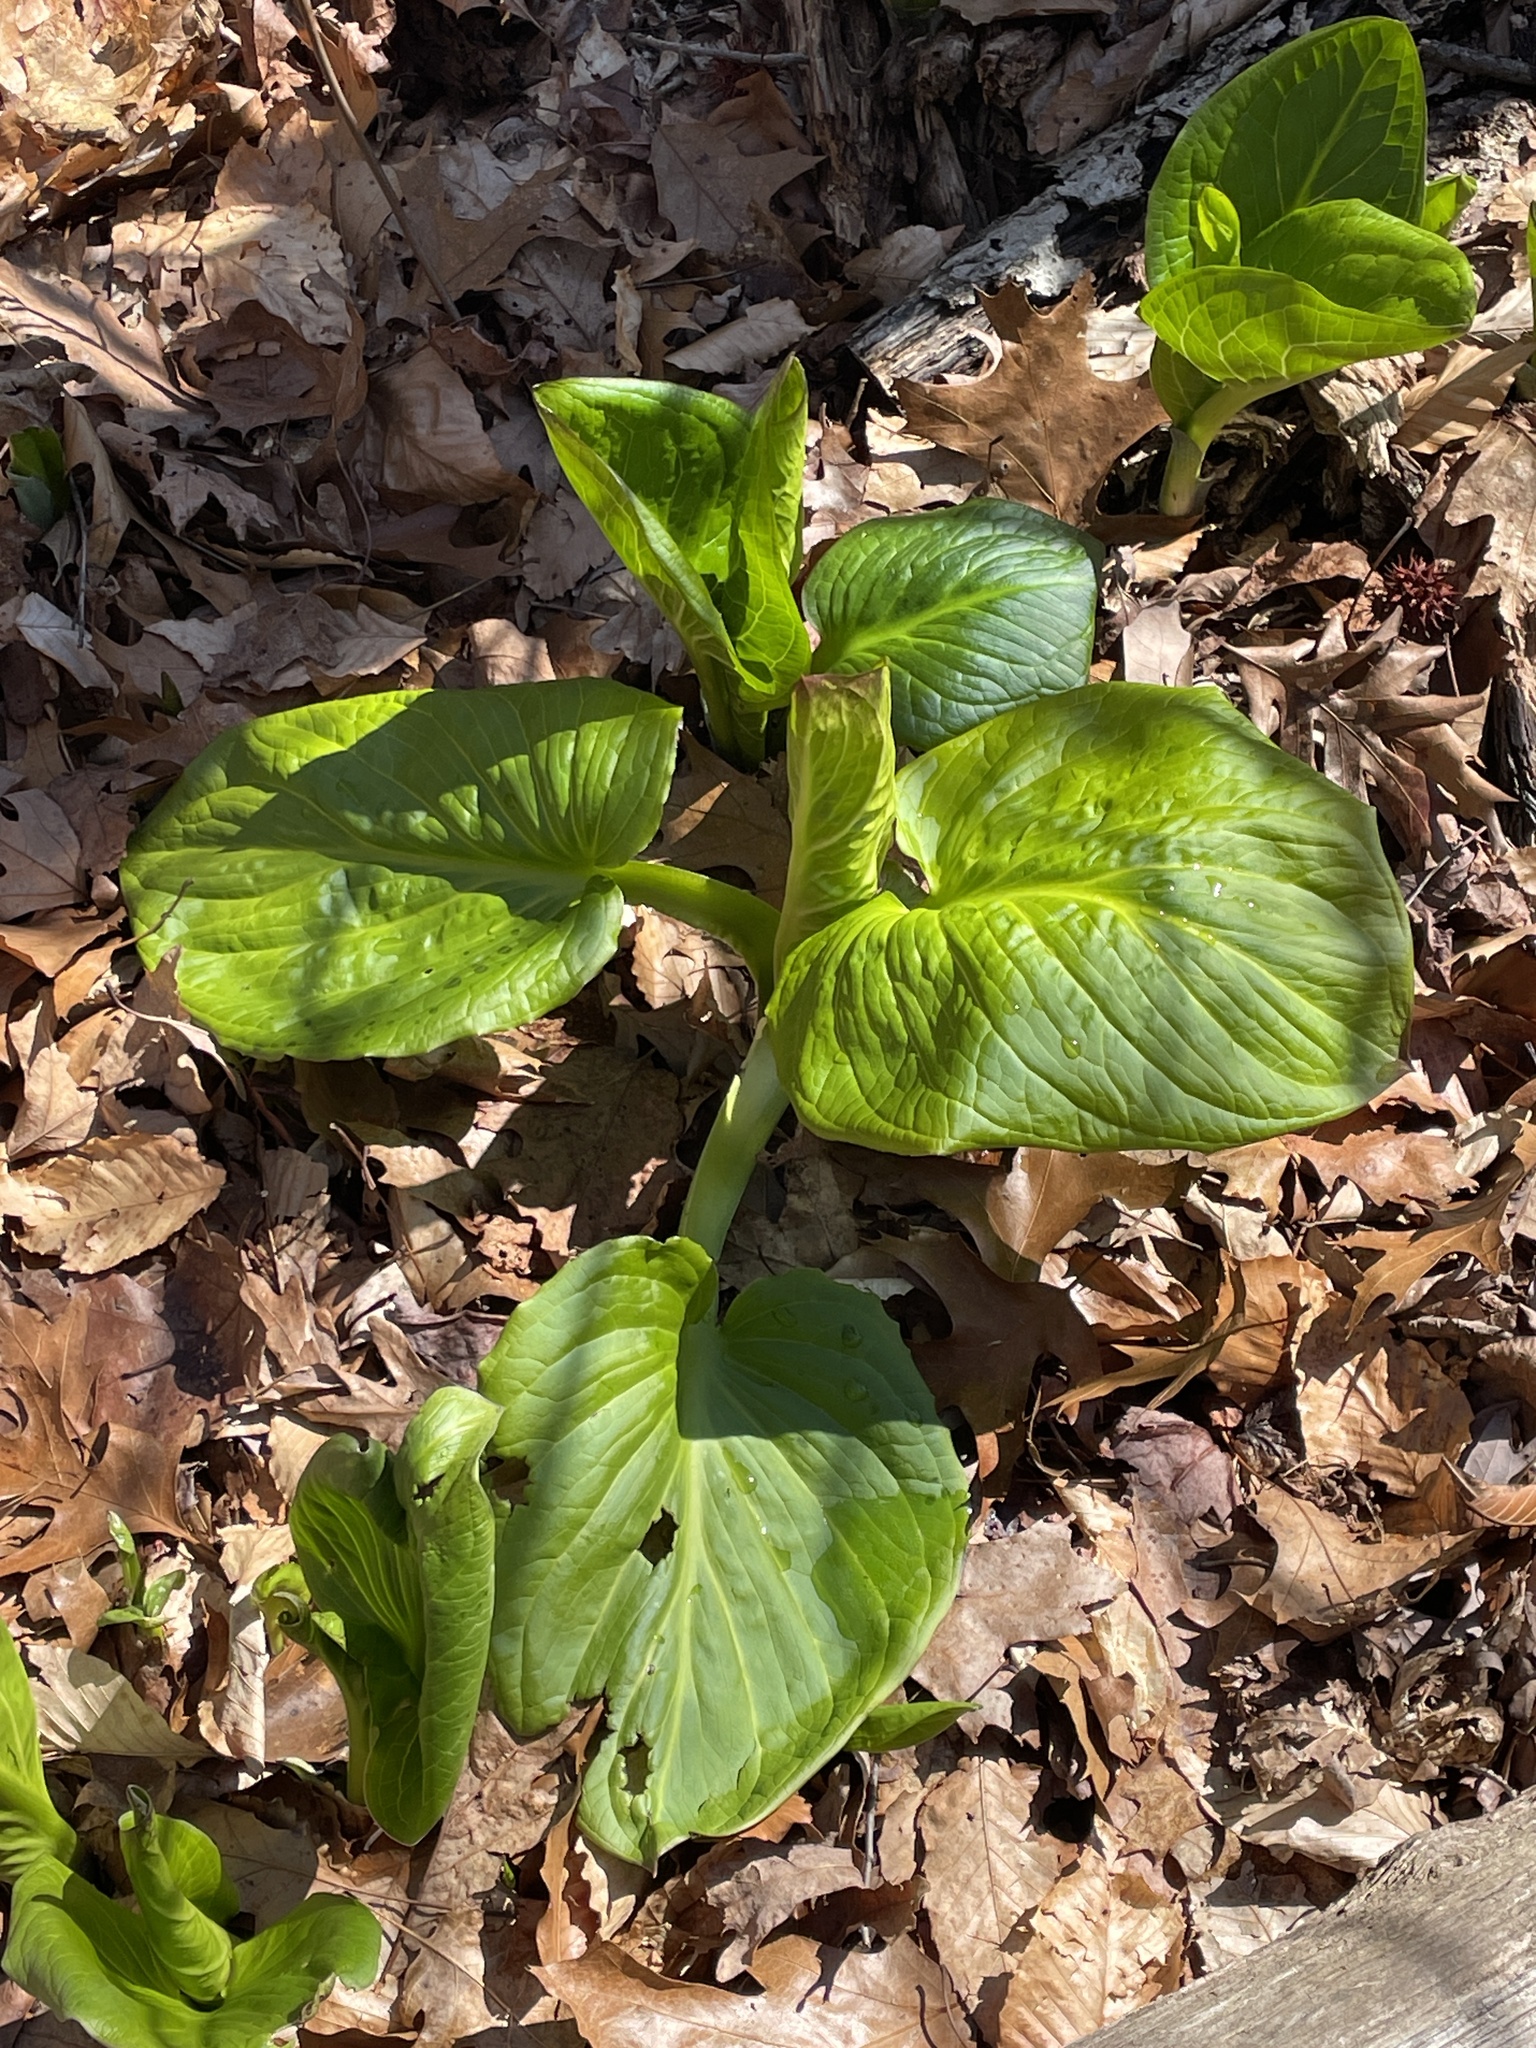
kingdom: Plantae
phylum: Tracheophyta
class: Liliopsida
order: Alismatales
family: Araceae
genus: Symplocarpus
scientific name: Symplocarpus foetidus
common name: Eastern skunk cabbage
